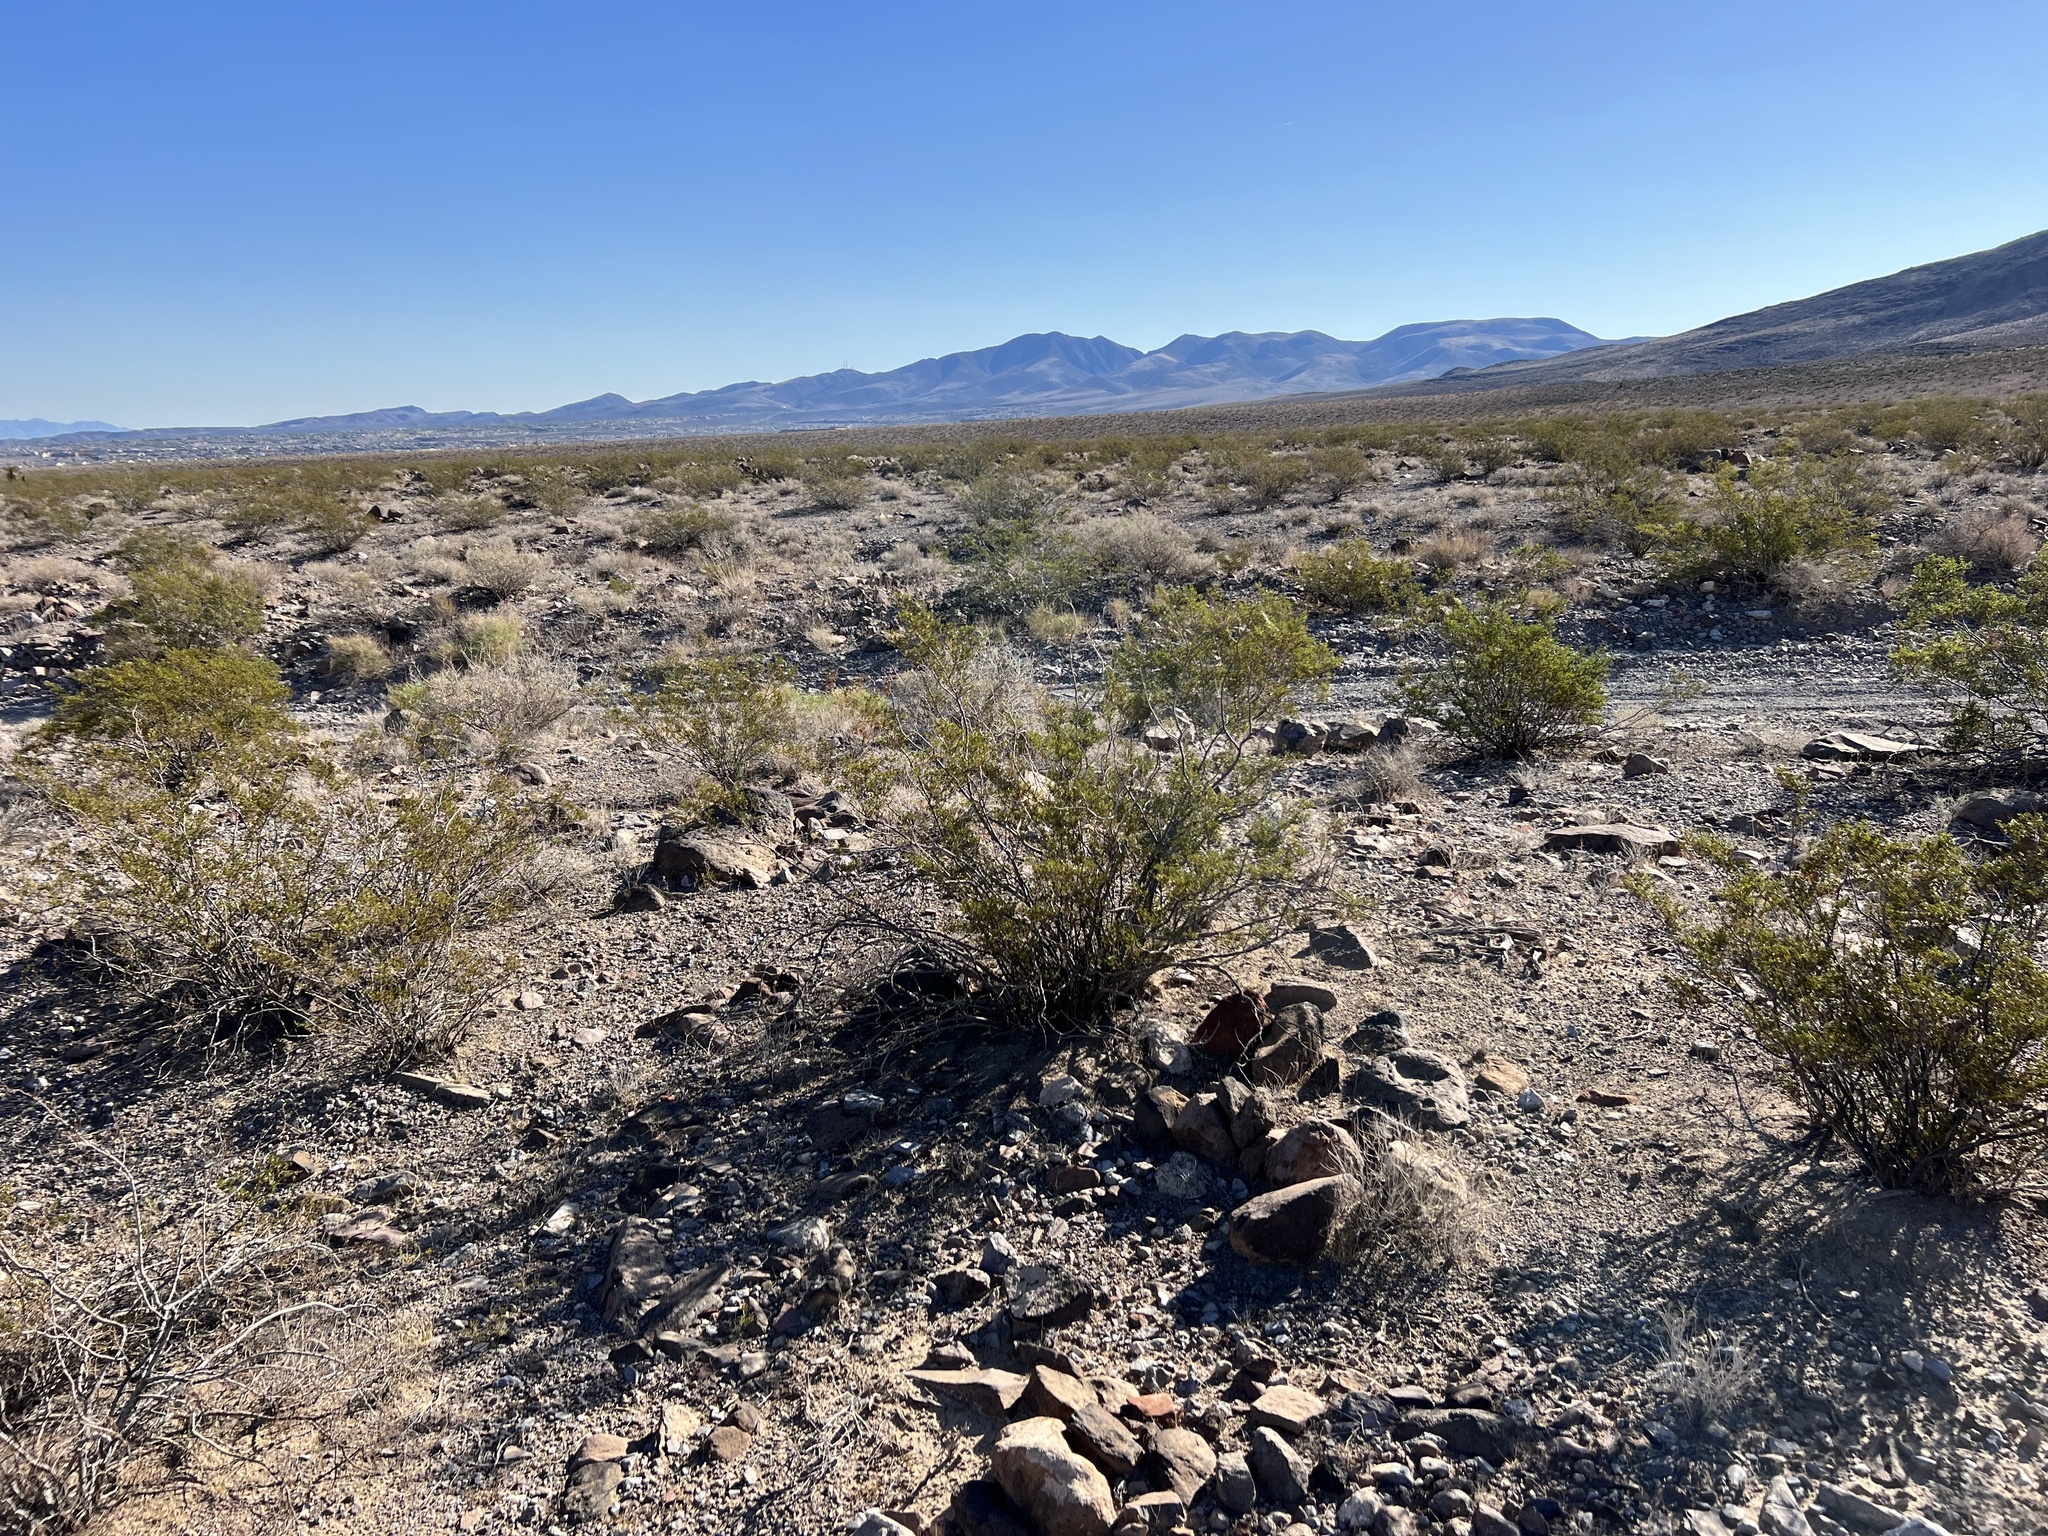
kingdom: Plantae
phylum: Tracheophyta
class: Magnoliopsida
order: Zygophyllales
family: Zygophyllaceae
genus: Larrea
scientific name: Larrea tridentata
